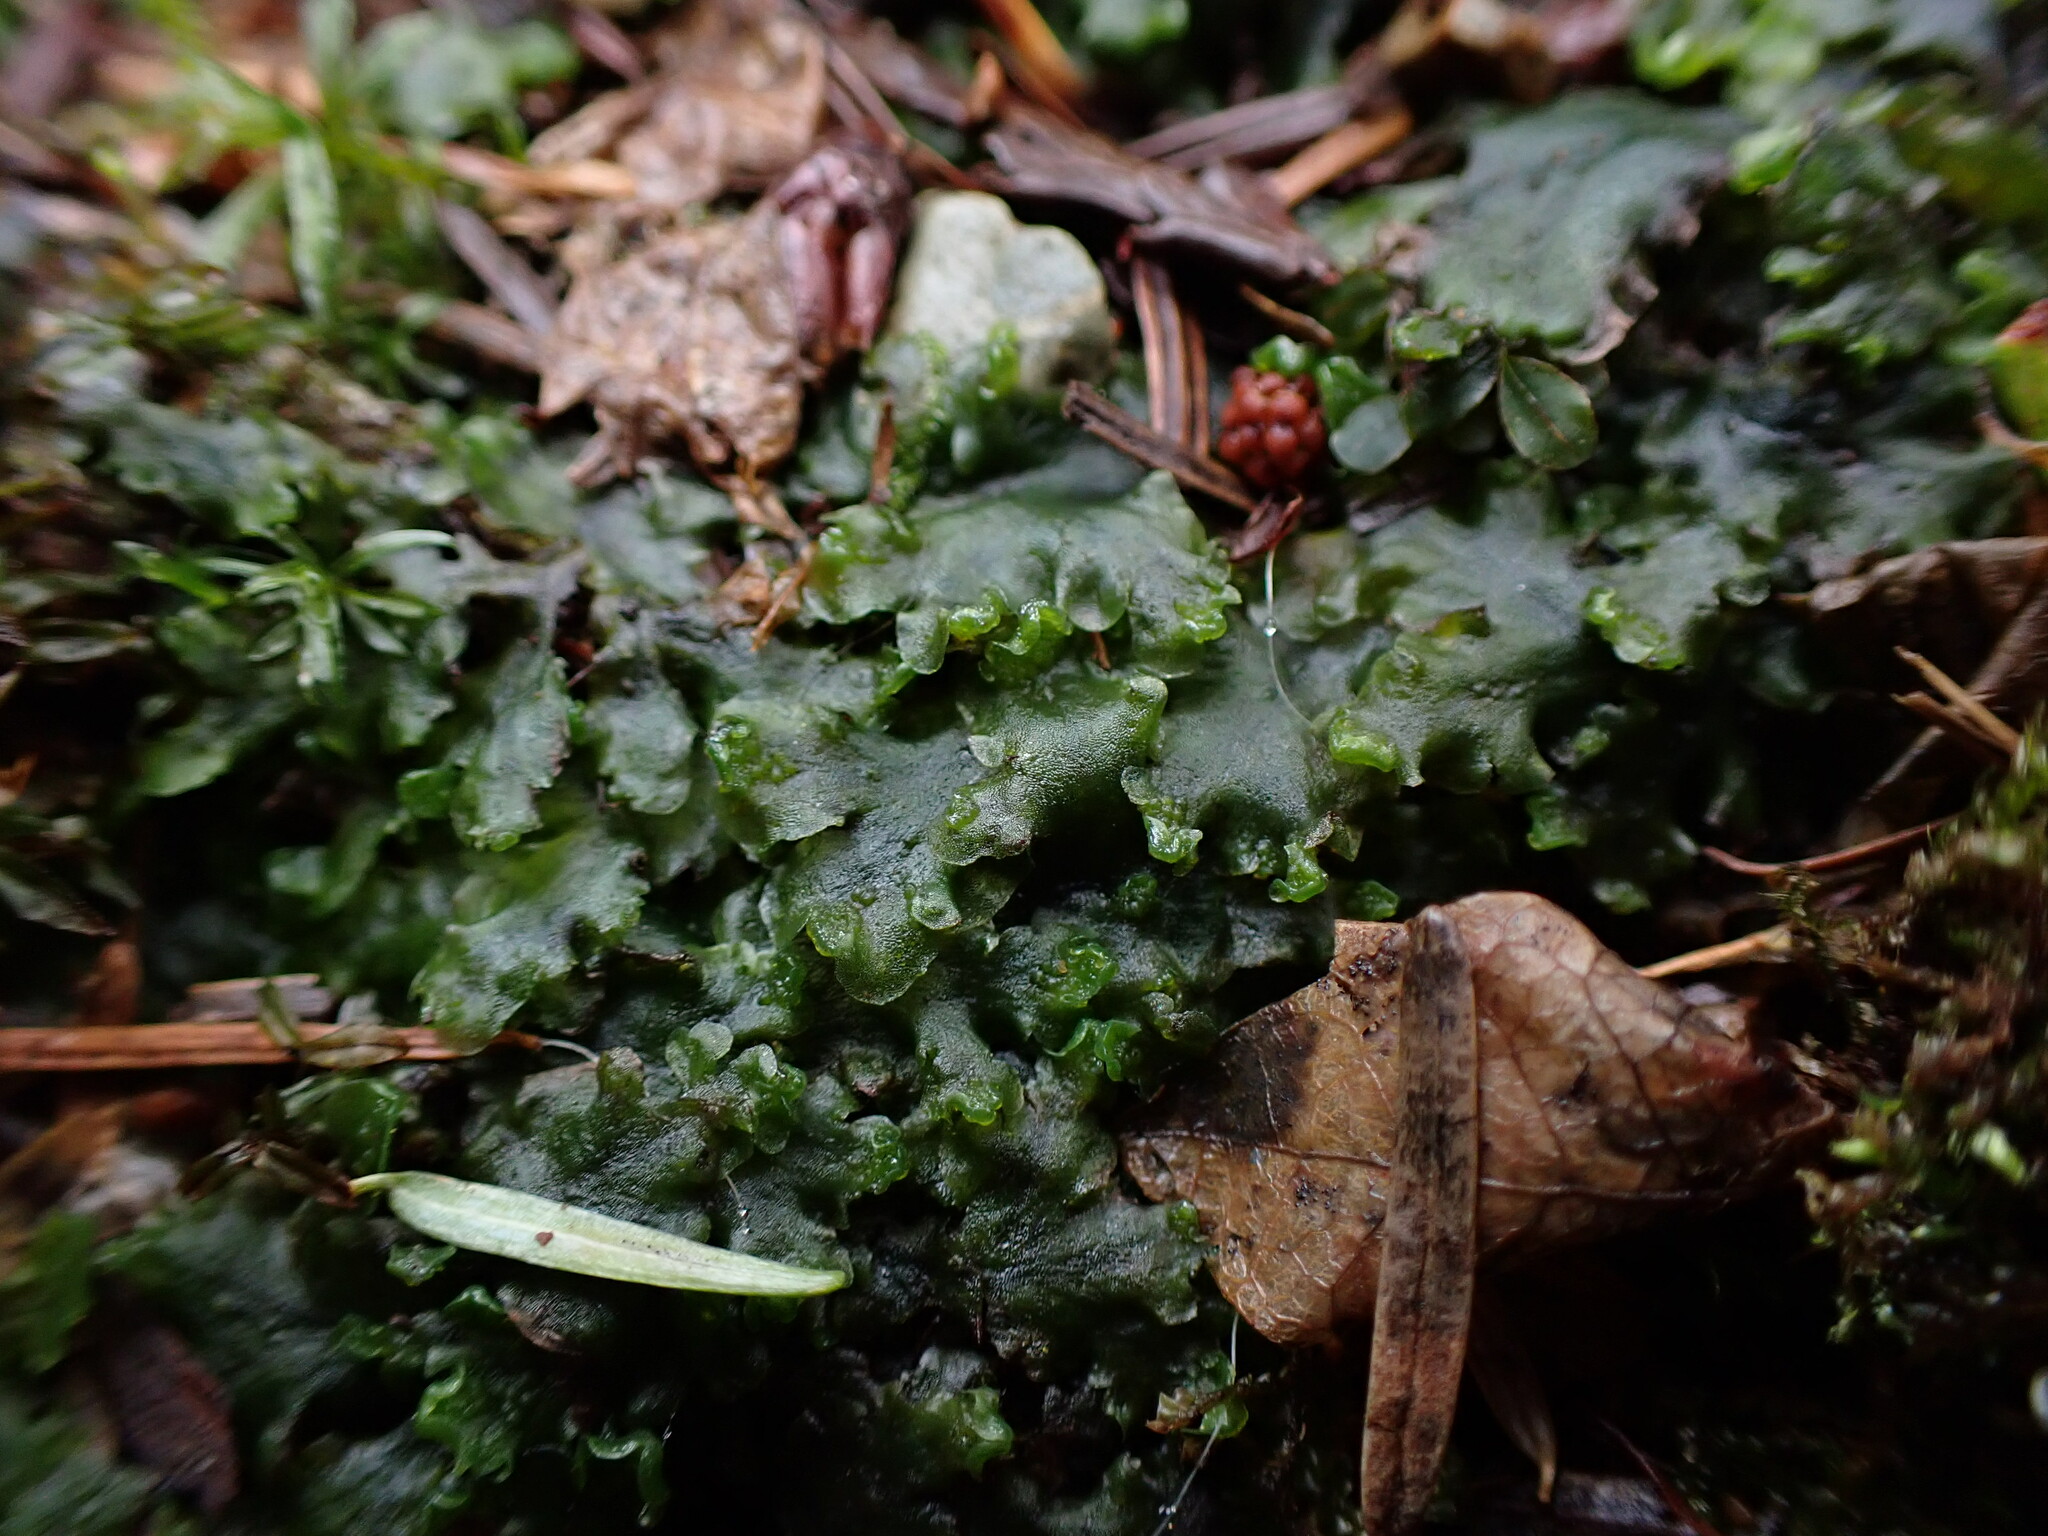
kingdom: Plantae
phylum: Marchantiophyta
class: Jungermanniopsida
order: Pelliales
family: Pelliaceae
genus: Pellia
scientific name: Pellia neesiana
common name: Nees  pellia
